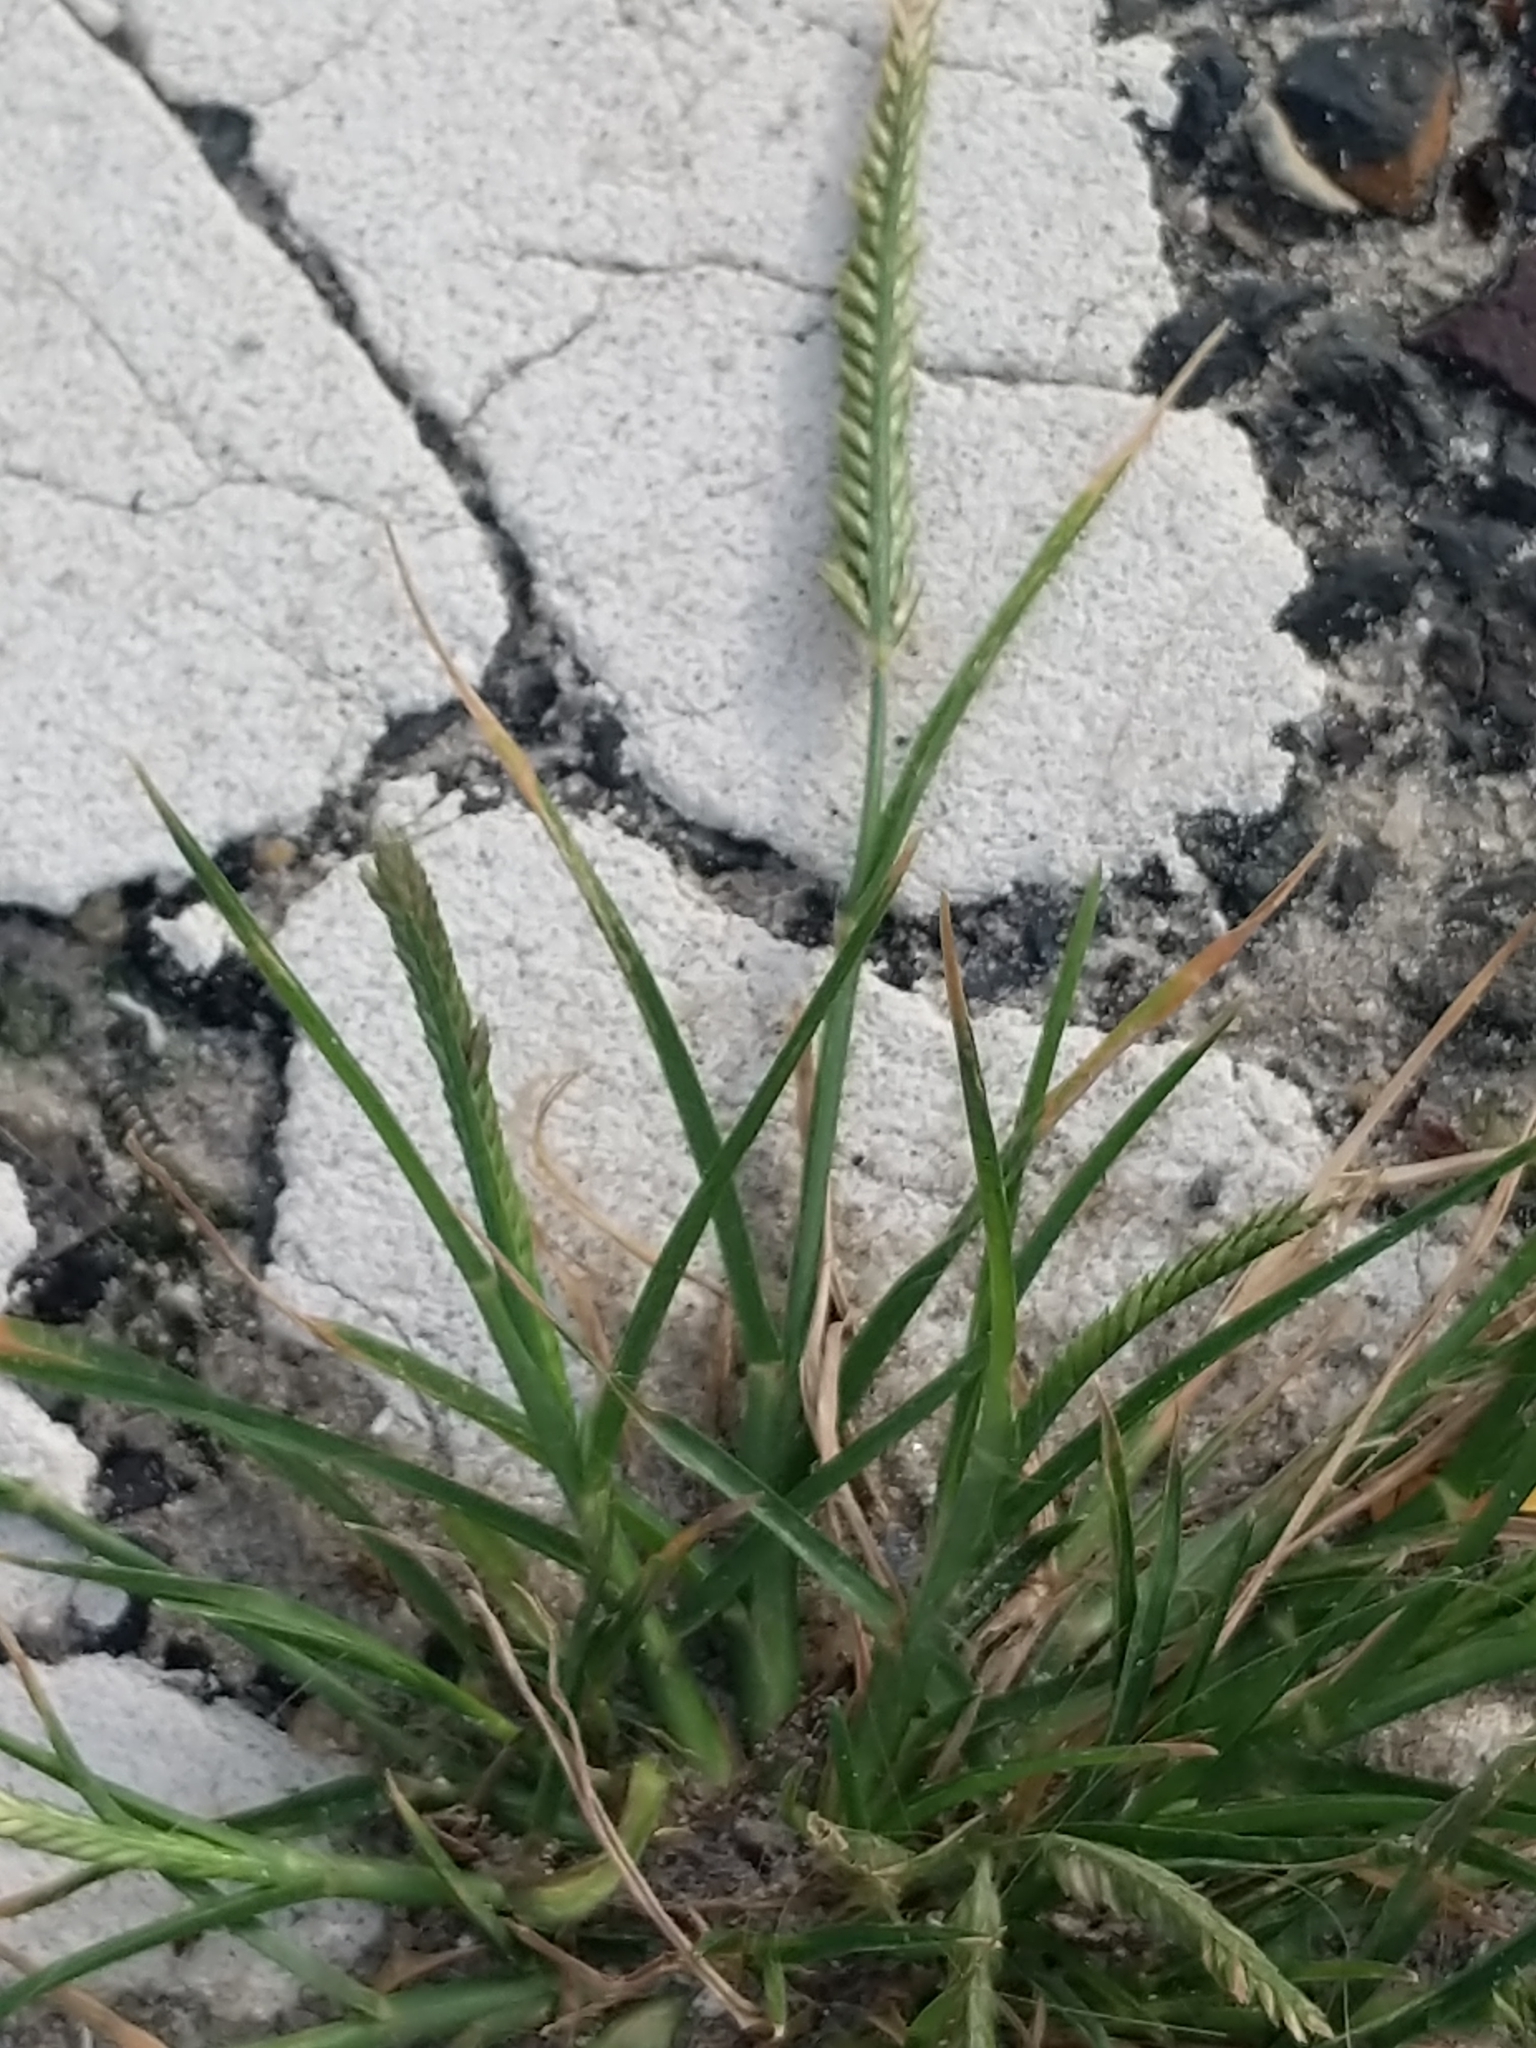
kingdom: Plantae
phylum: Tracheophyta
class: Liliopsida
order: Poales
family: Poaceae
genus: Eleusine
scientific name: Eleusine indica
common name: Yard-grass
